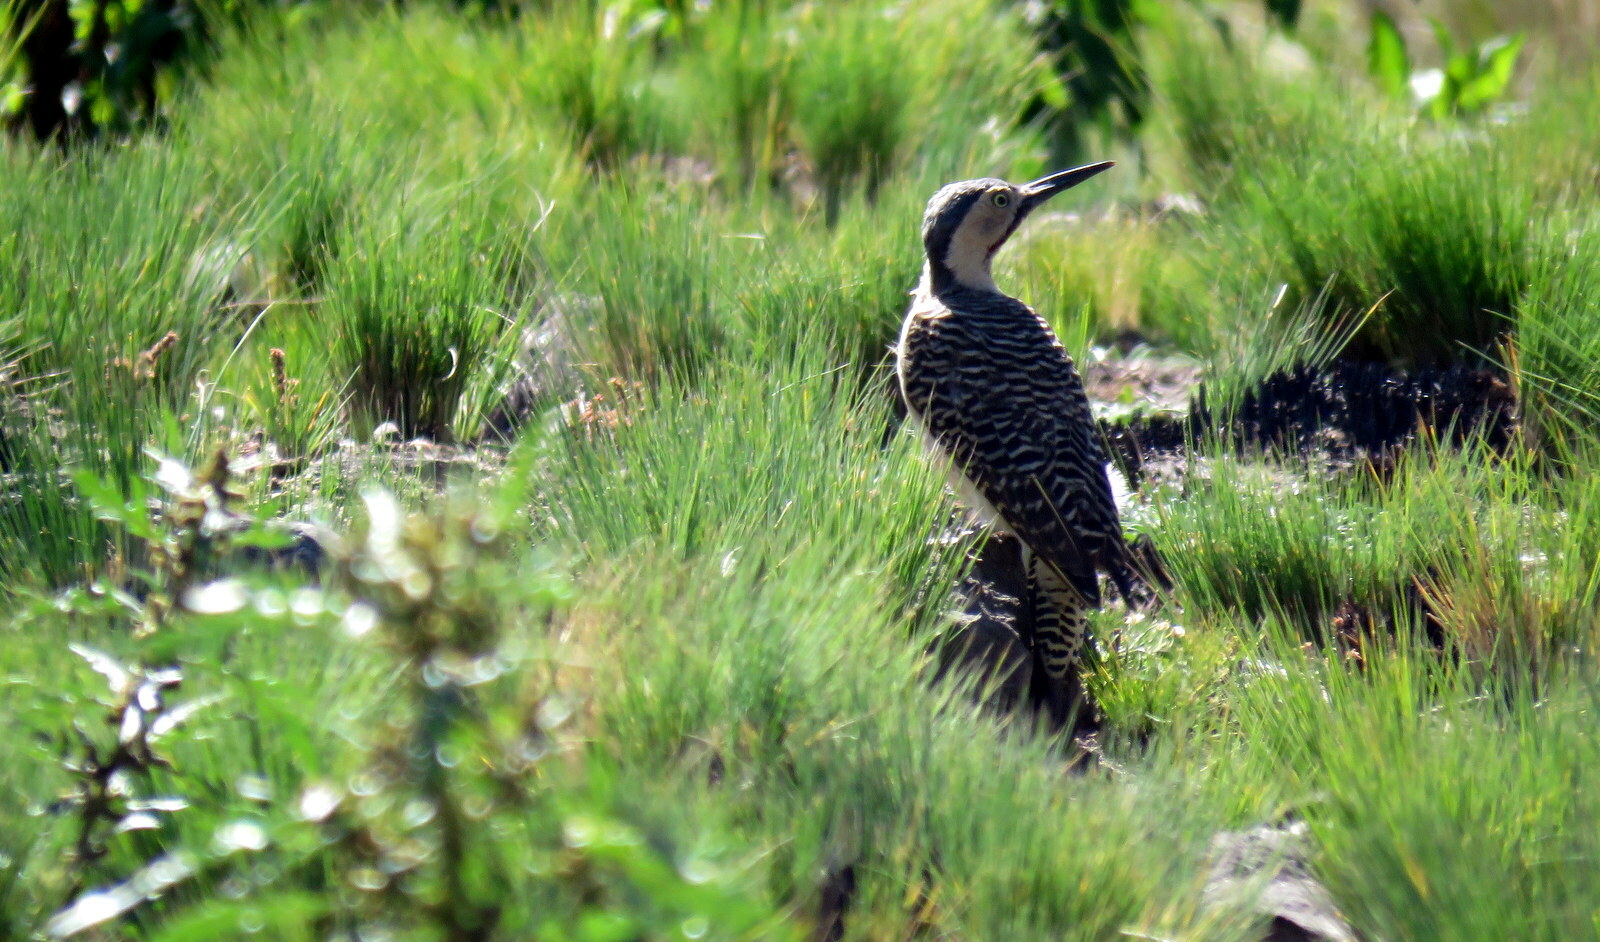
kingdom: Animalia
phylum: Chordata
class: Aves
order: Piciformes
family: Picidae
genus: Colaptes
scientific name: Colaptes rupicola
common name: Andean flicker
